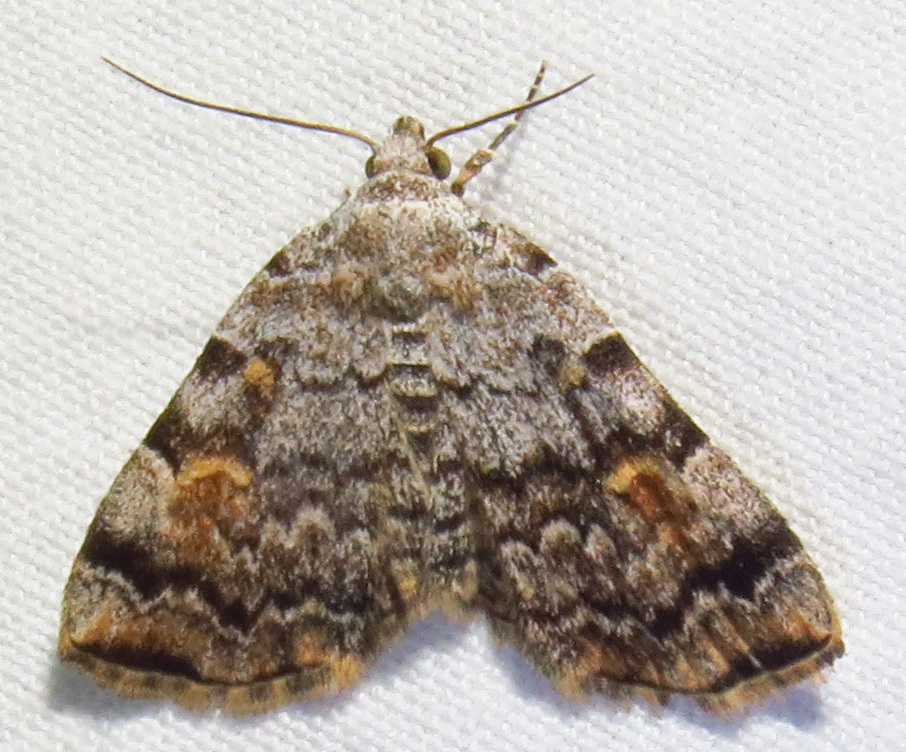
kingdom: Animalia
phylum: Arthropoda
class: Insecta
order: Lepidoptera
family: Erebidae
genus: Idia
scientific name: Idia americalis
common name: American idia moth
